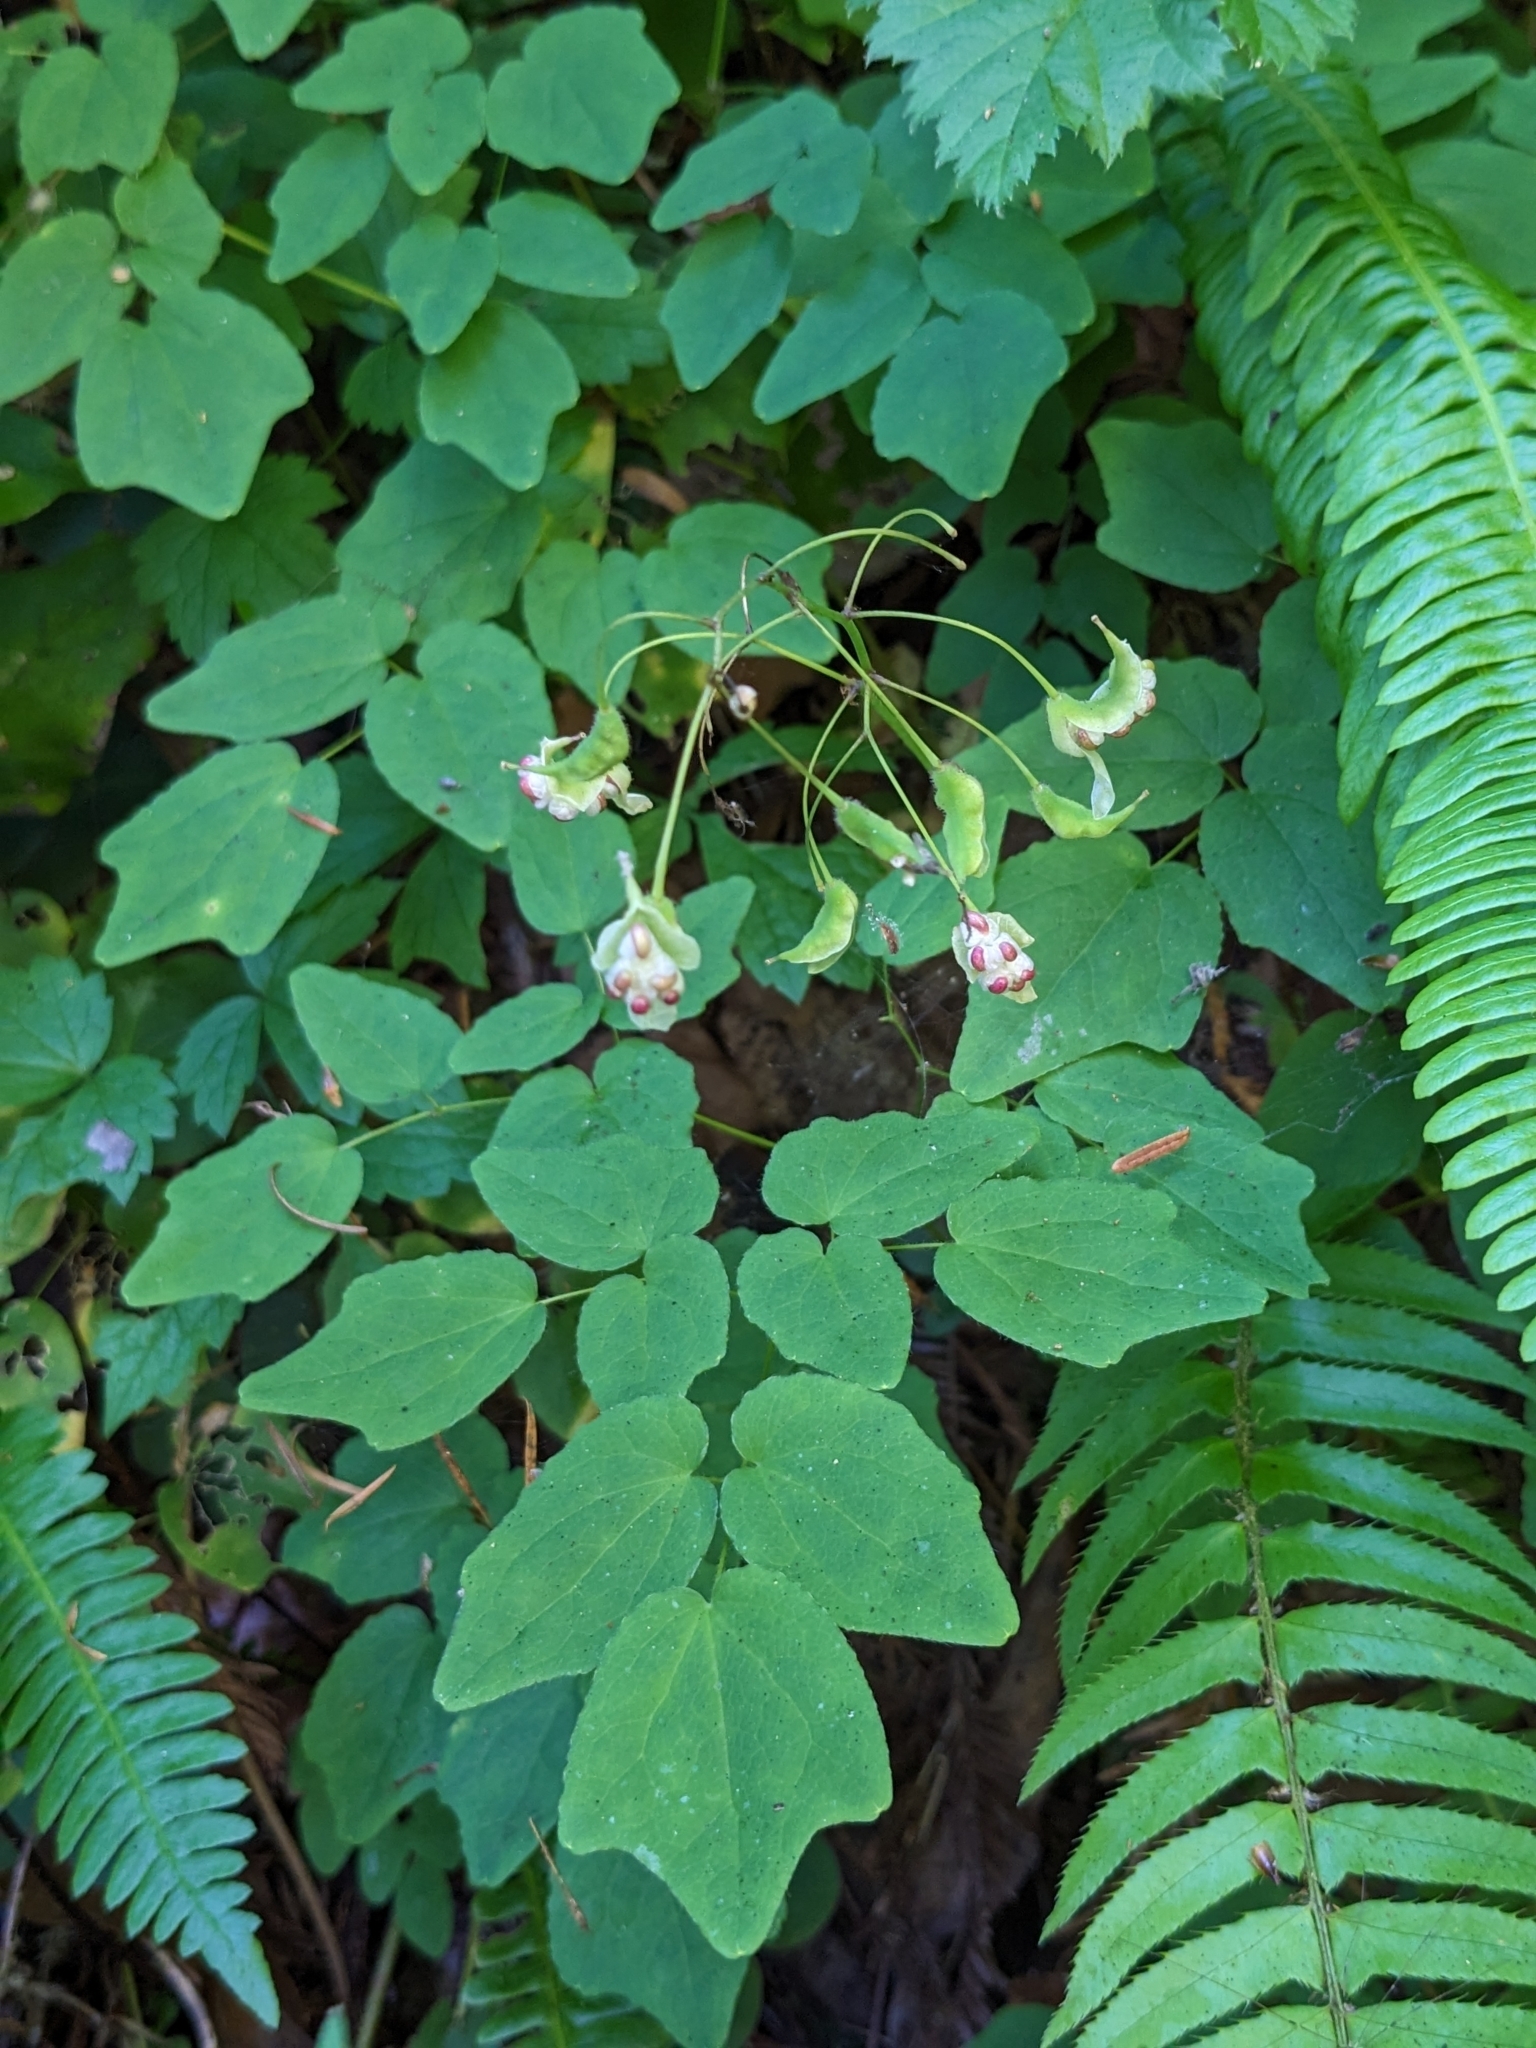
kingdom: Plantae
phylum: Tracheophyta
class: Magnoliopsida
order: Ranunculales
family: Berberidaceae
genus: Vancouveria
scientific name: Vancouveria hexandra
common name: Northern inside-out-flower
